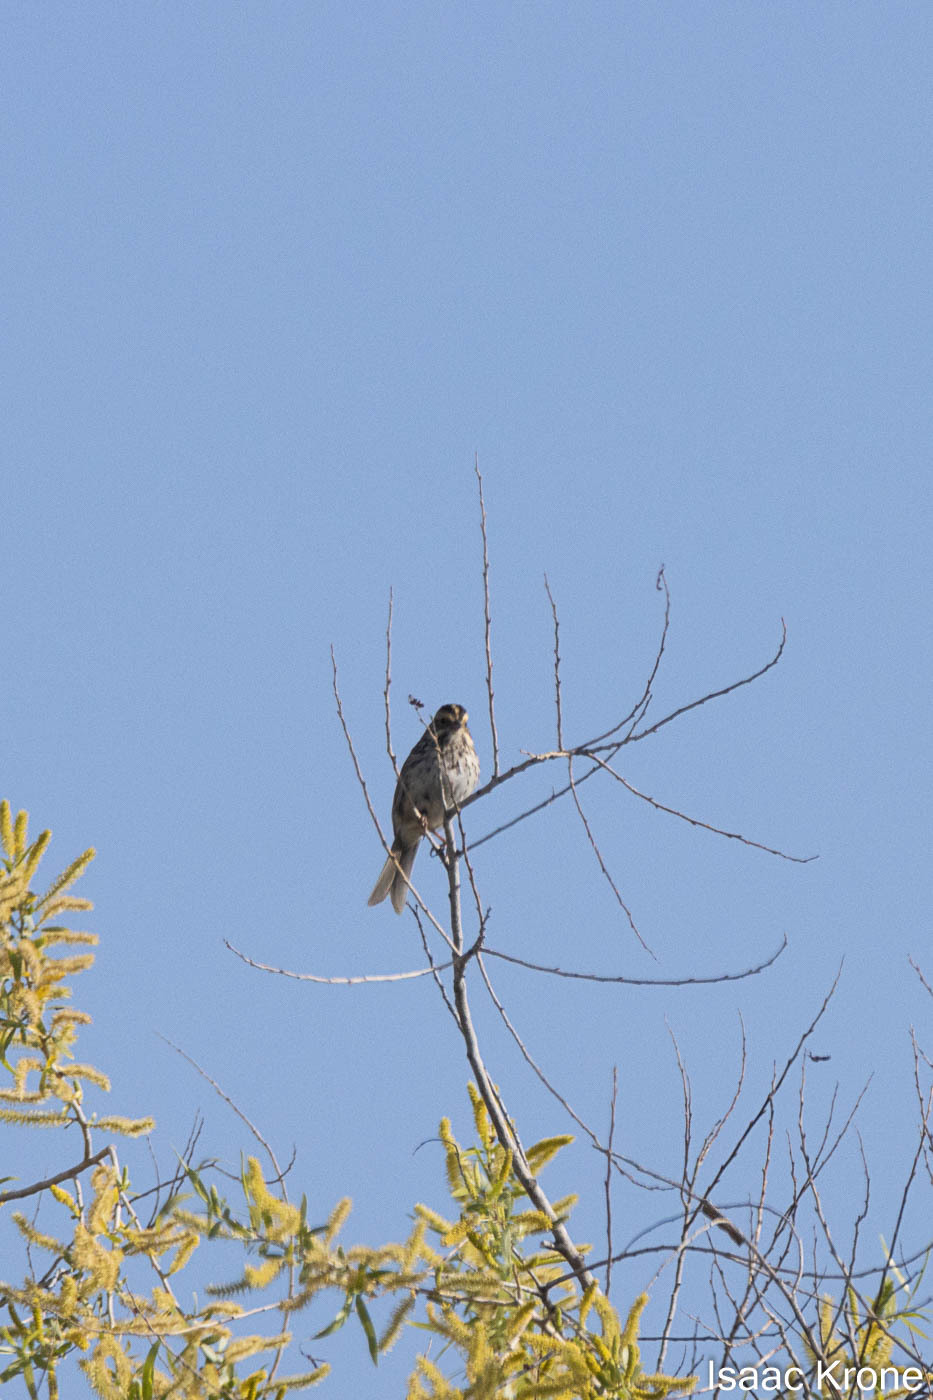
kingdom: Animalia
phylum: Chordata
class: Aves
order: Passeriformes
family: Passerellidae
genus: Passerculus
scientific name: Passerculus sandwichensis
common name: Savannah sparrow
